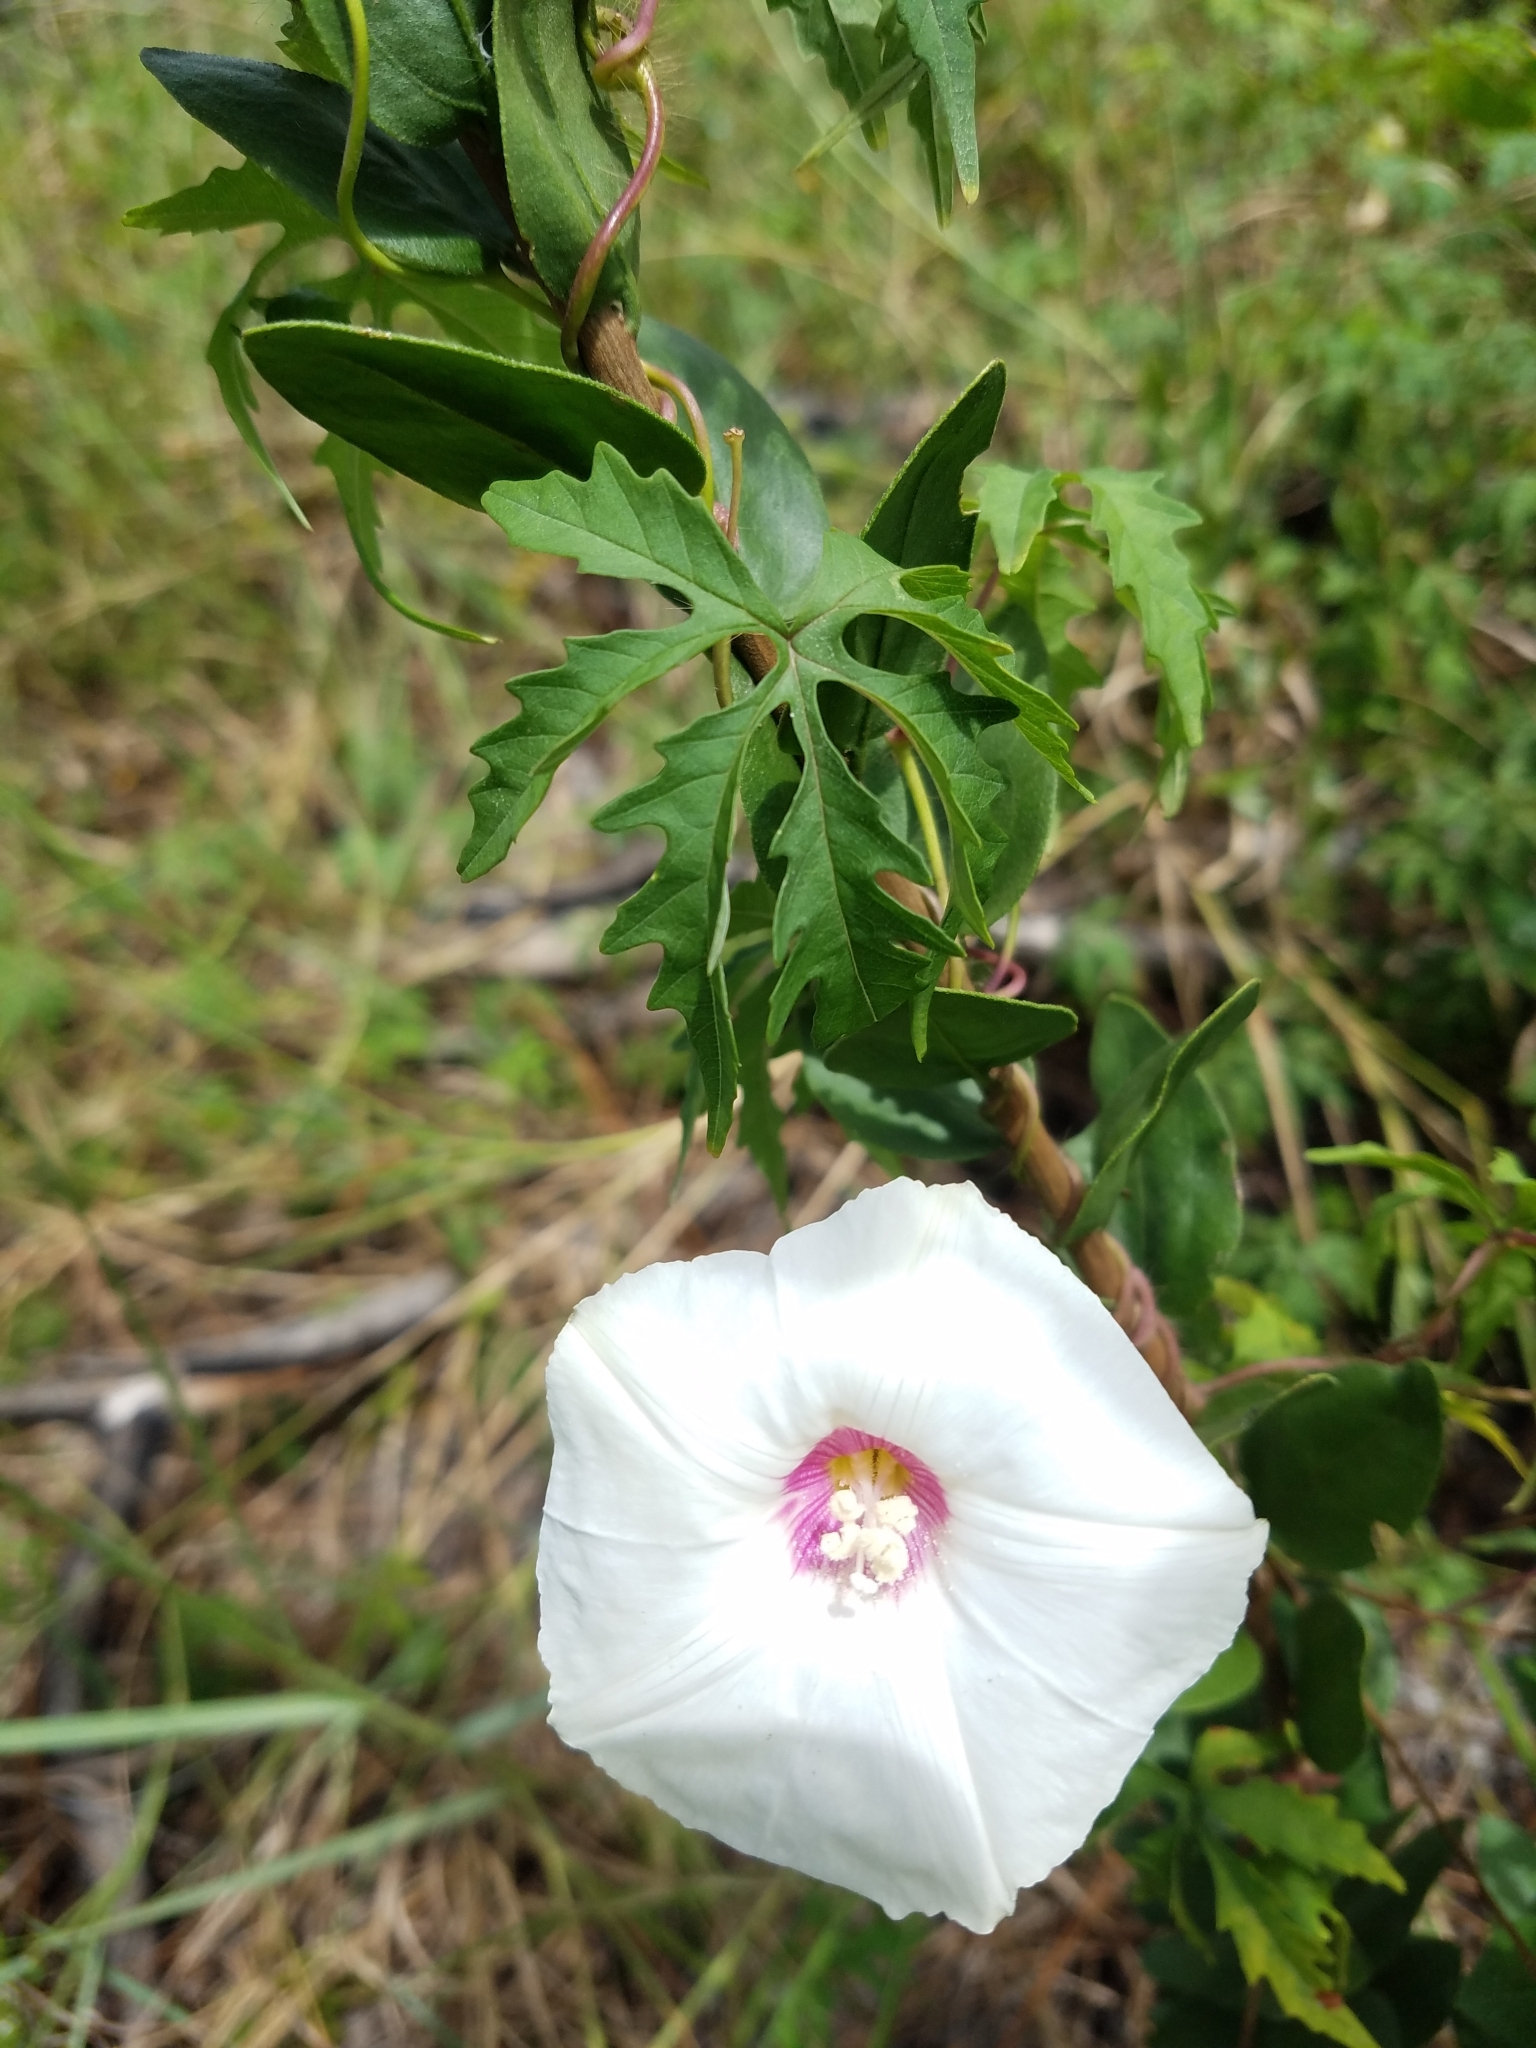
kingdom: Plantae
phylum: Tracheophyta
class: Magnoliopsida
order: Solanales
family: Convolvulaceae
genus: Distimake
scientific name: Distimake dissectus
